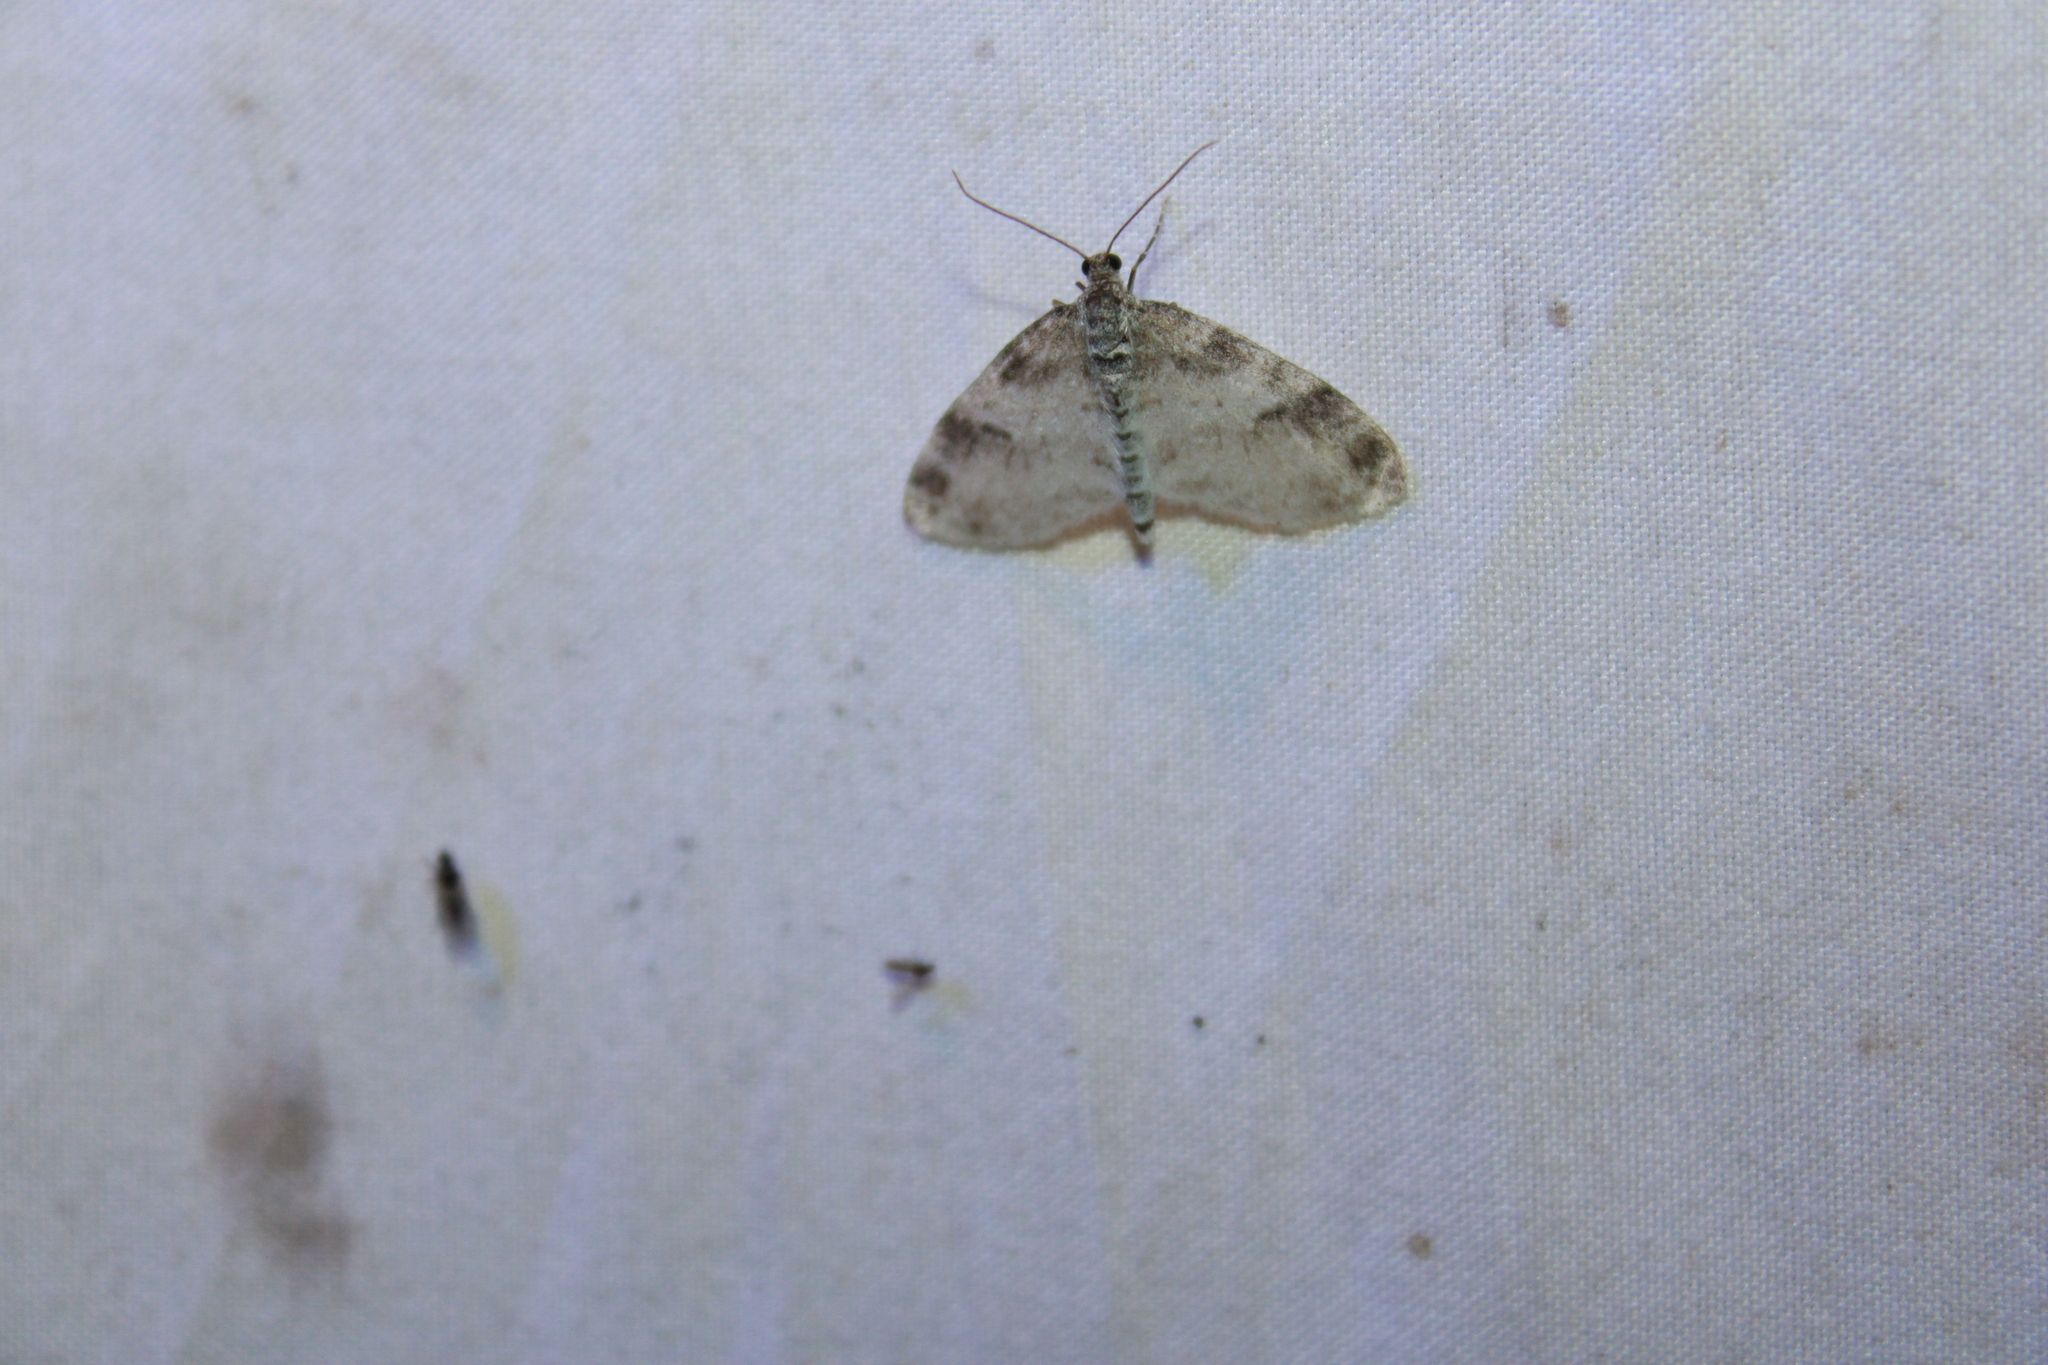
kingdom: Animalia
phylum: Arthropoda
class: Insecta
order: Lepidoptera
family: Geometridae
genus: Lobophora
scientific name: Lobophora nivigerata
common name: Powdered bigwing
